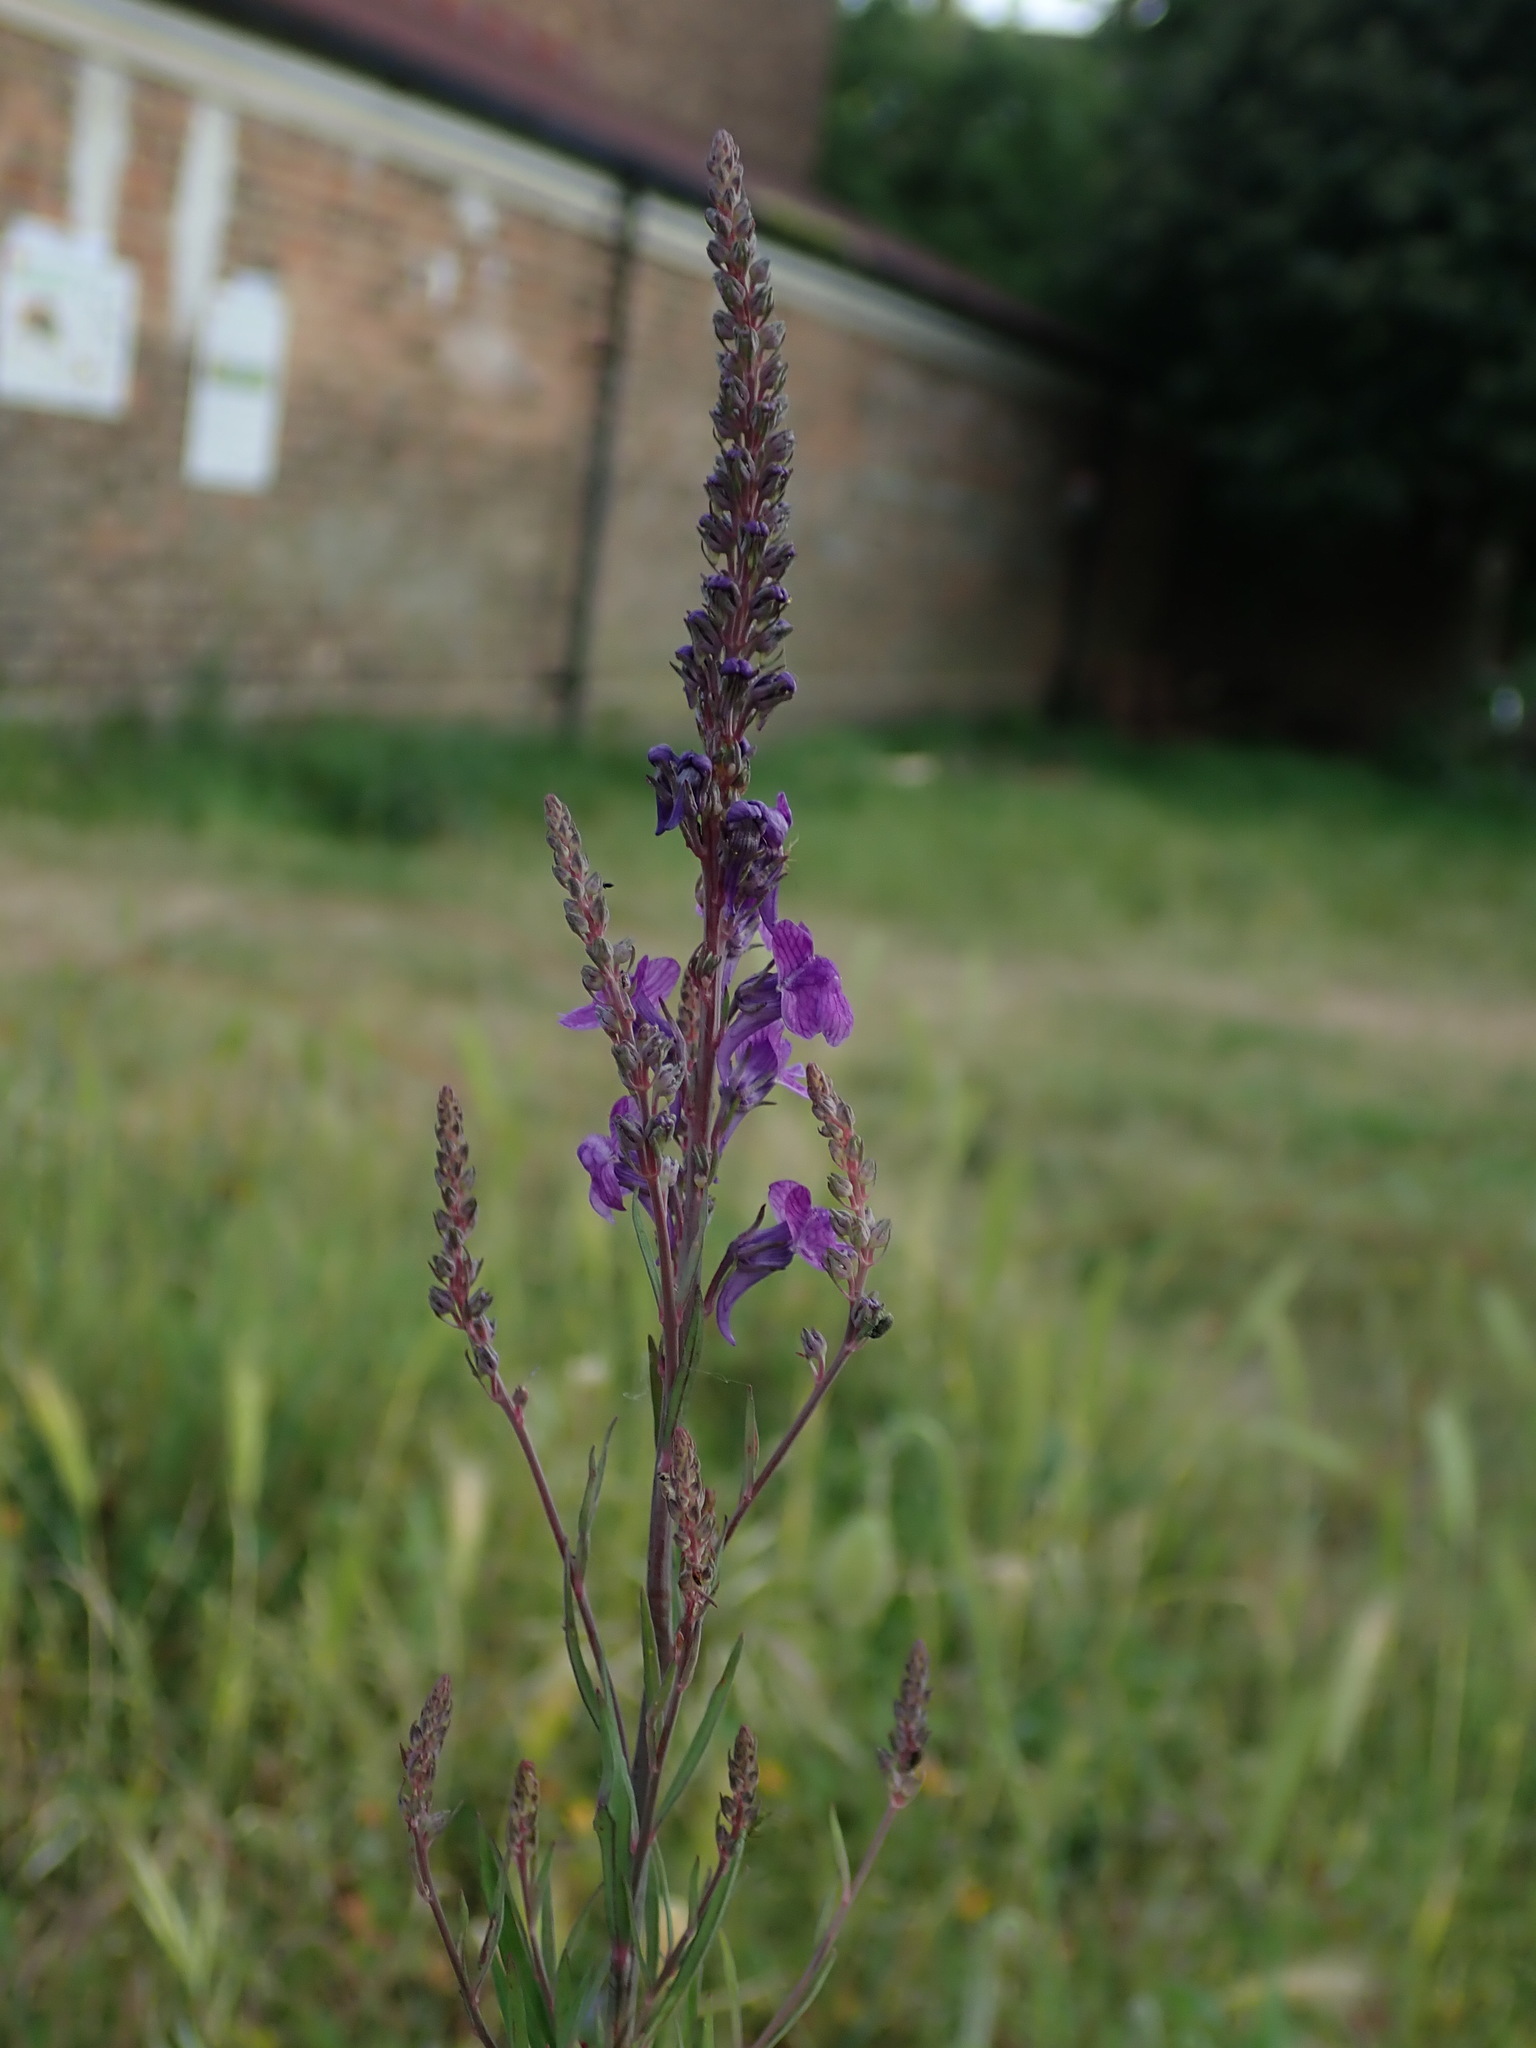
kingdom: Plantae
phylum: Tracheophyta
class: Magnoliopsida
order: Lamiales
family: Plantaginaceae
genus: Linaria
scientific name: Linaria purpurea
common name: Purple toadflax
